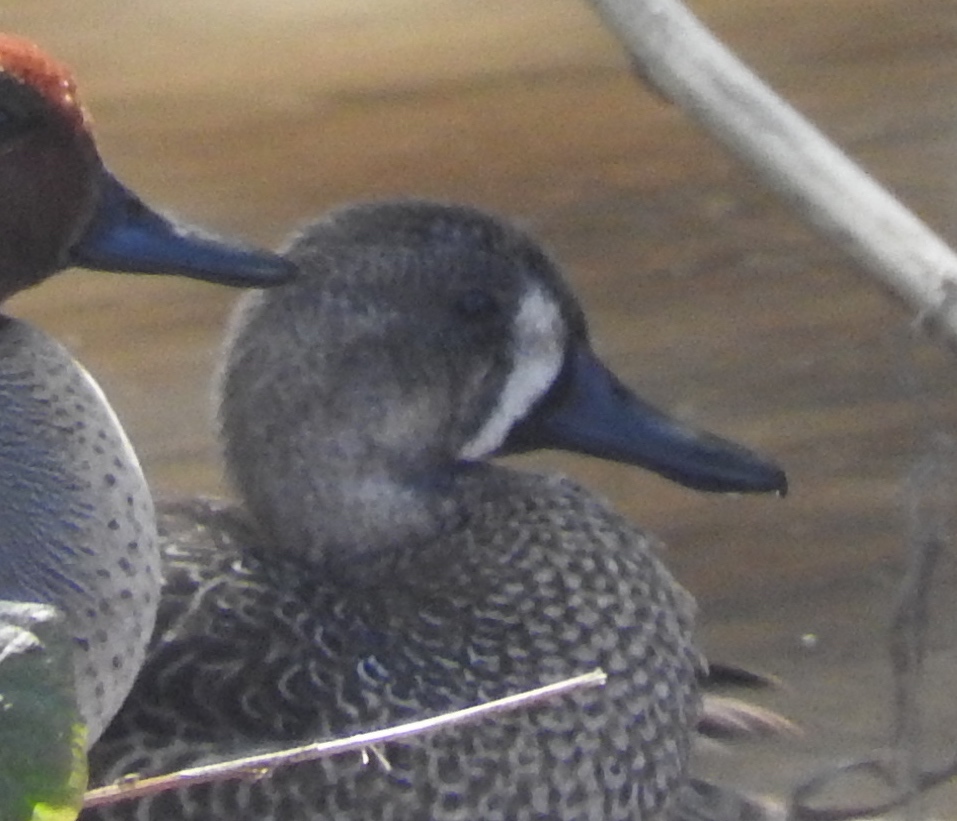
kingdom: Animalia
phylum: Chordata
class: Aves
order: Anseriformes
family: Anatidae
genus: Spatula
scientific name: Spatula discors
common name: Blue-winged teal
